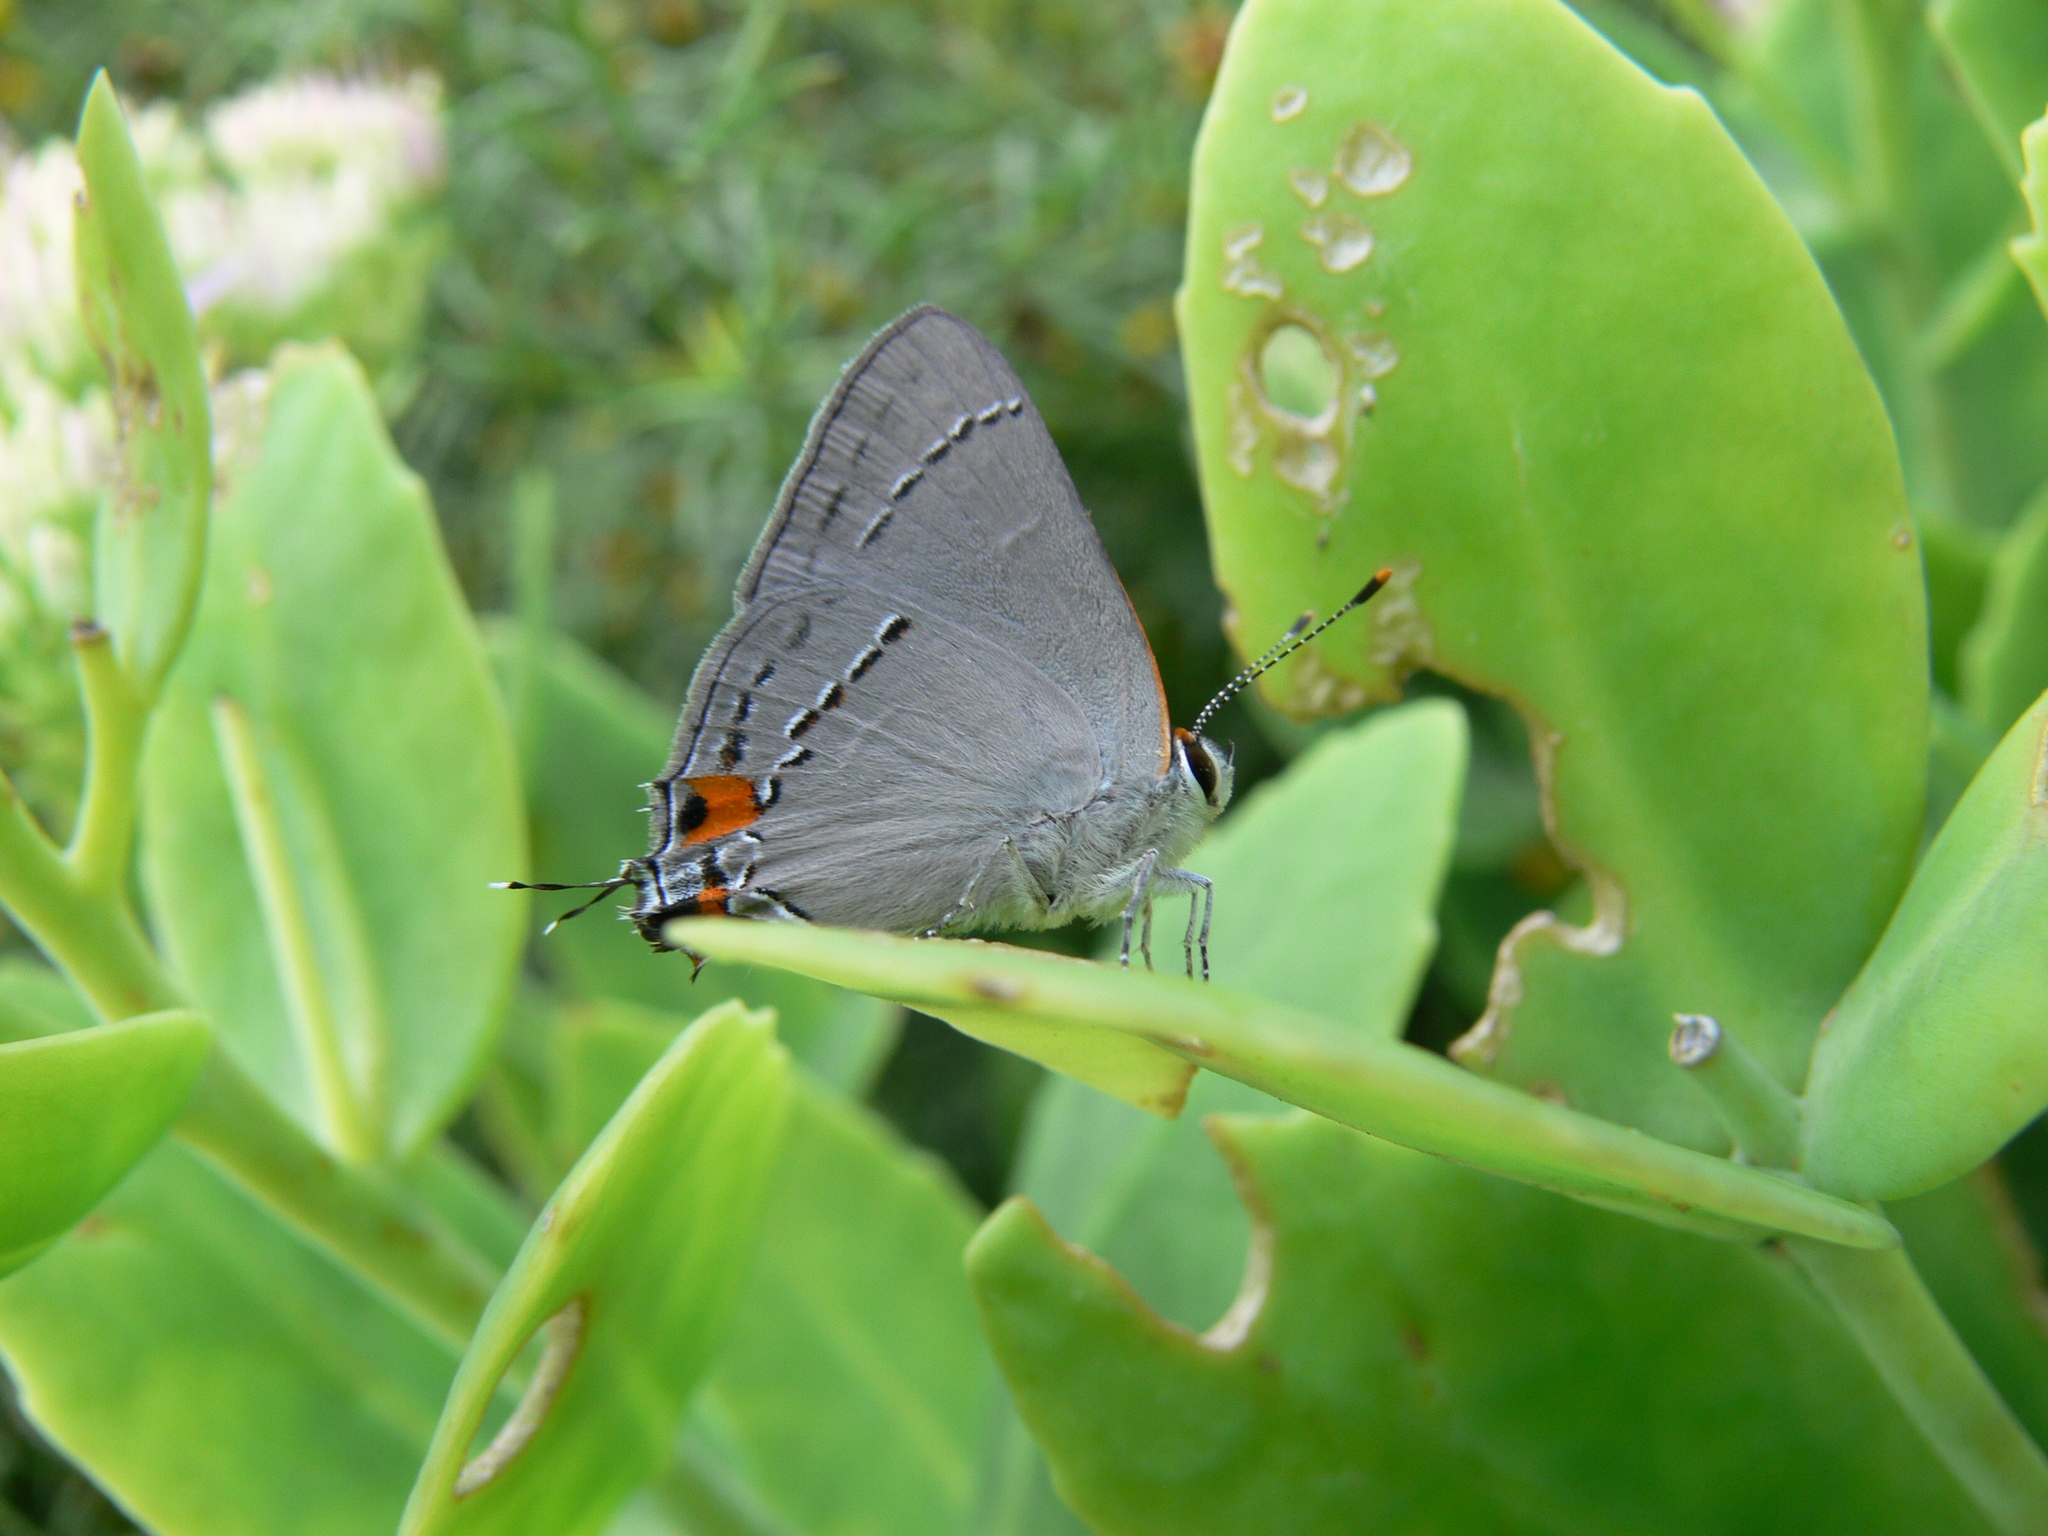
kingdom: Animalia
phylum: Arthropoda
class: Insecta
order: Lepidoptera
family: Lycaenidae
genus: Strymon
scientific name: Strymon melinus
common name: Gray hairstreak
